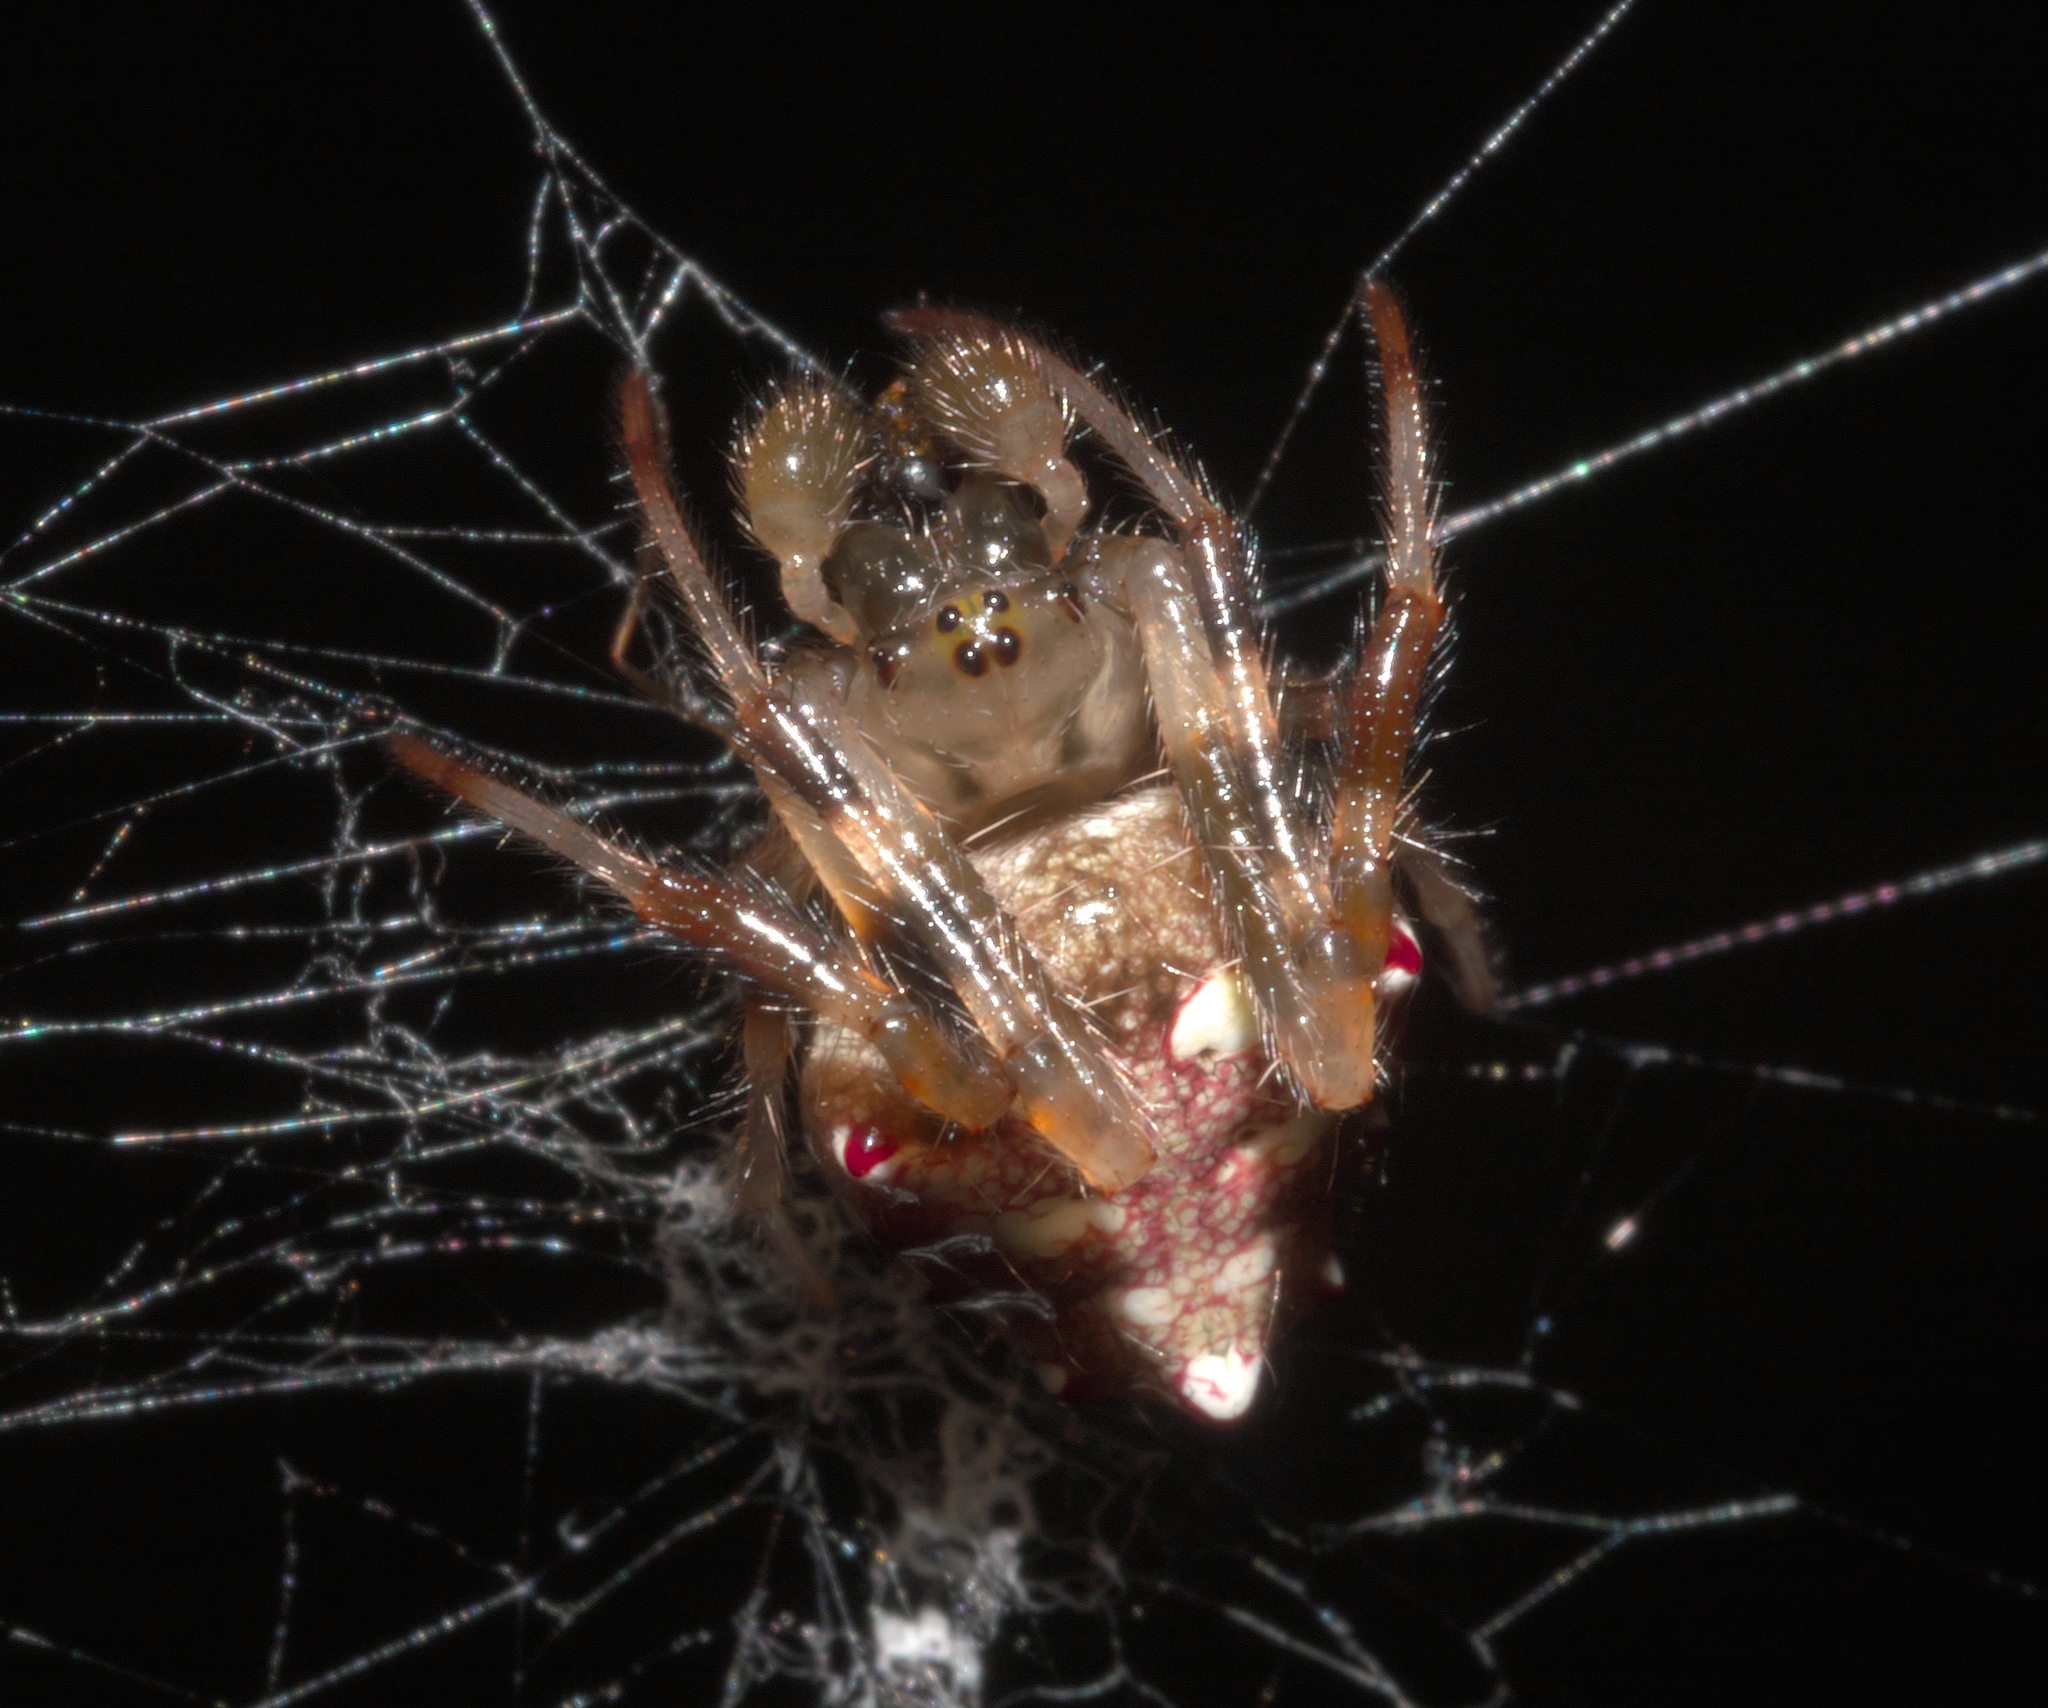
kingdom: Animalia
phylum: Arthropoda
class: Arachnida
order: Araneae
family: Araneidae
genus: Verrucosa
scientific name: Verrucosa arenata
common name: Orb weavers
